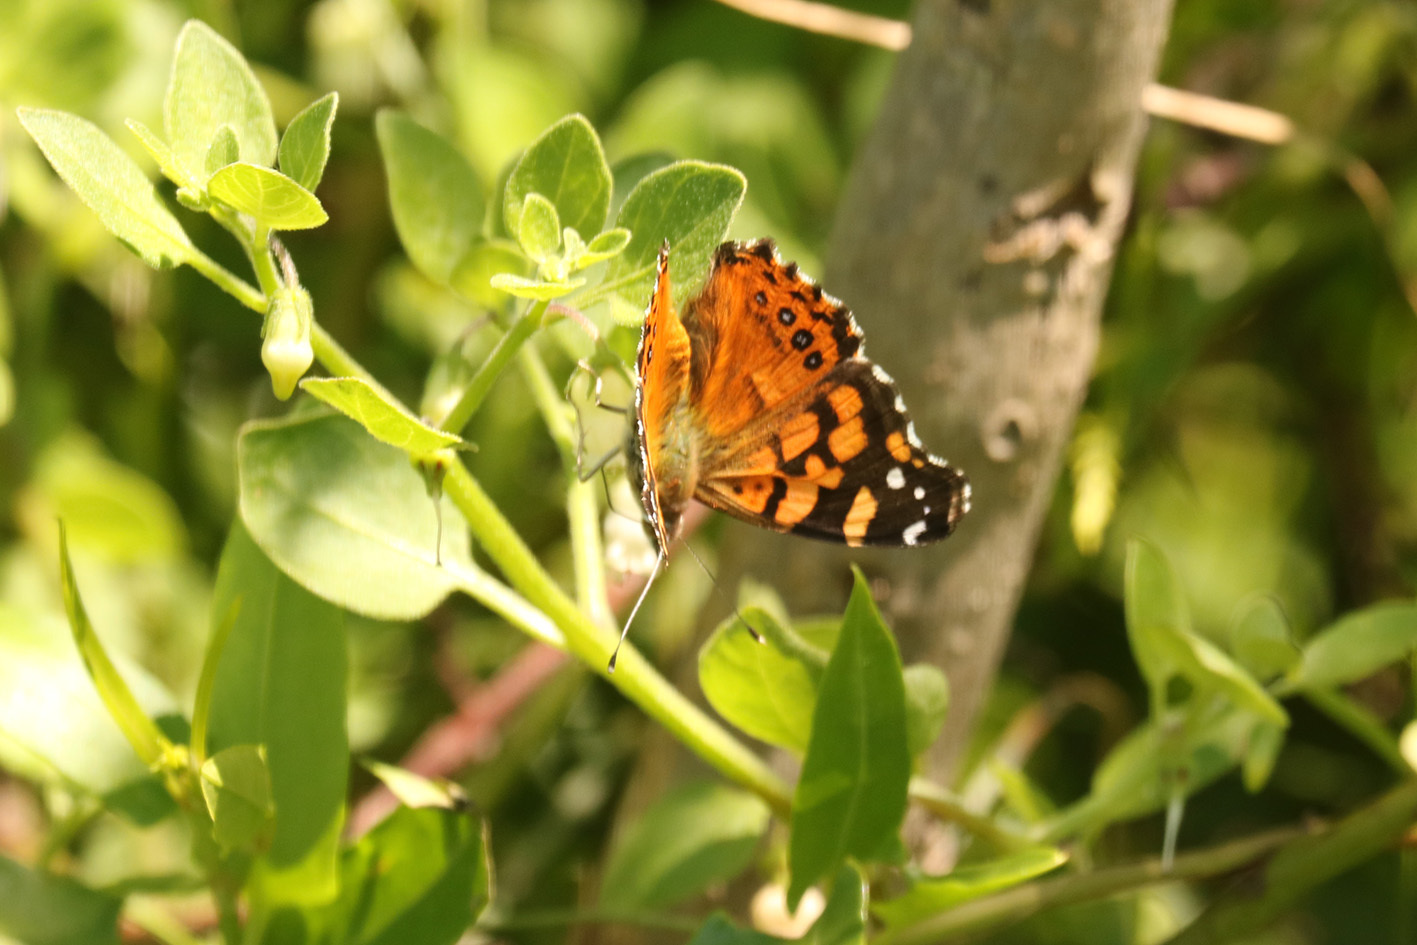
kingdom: Animalia
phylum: Arthropoda
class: Insecta
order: Lepidoptera
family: Nymphalidae
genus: Vanessa
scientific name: Vanessa carye
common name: Subtropical lady
